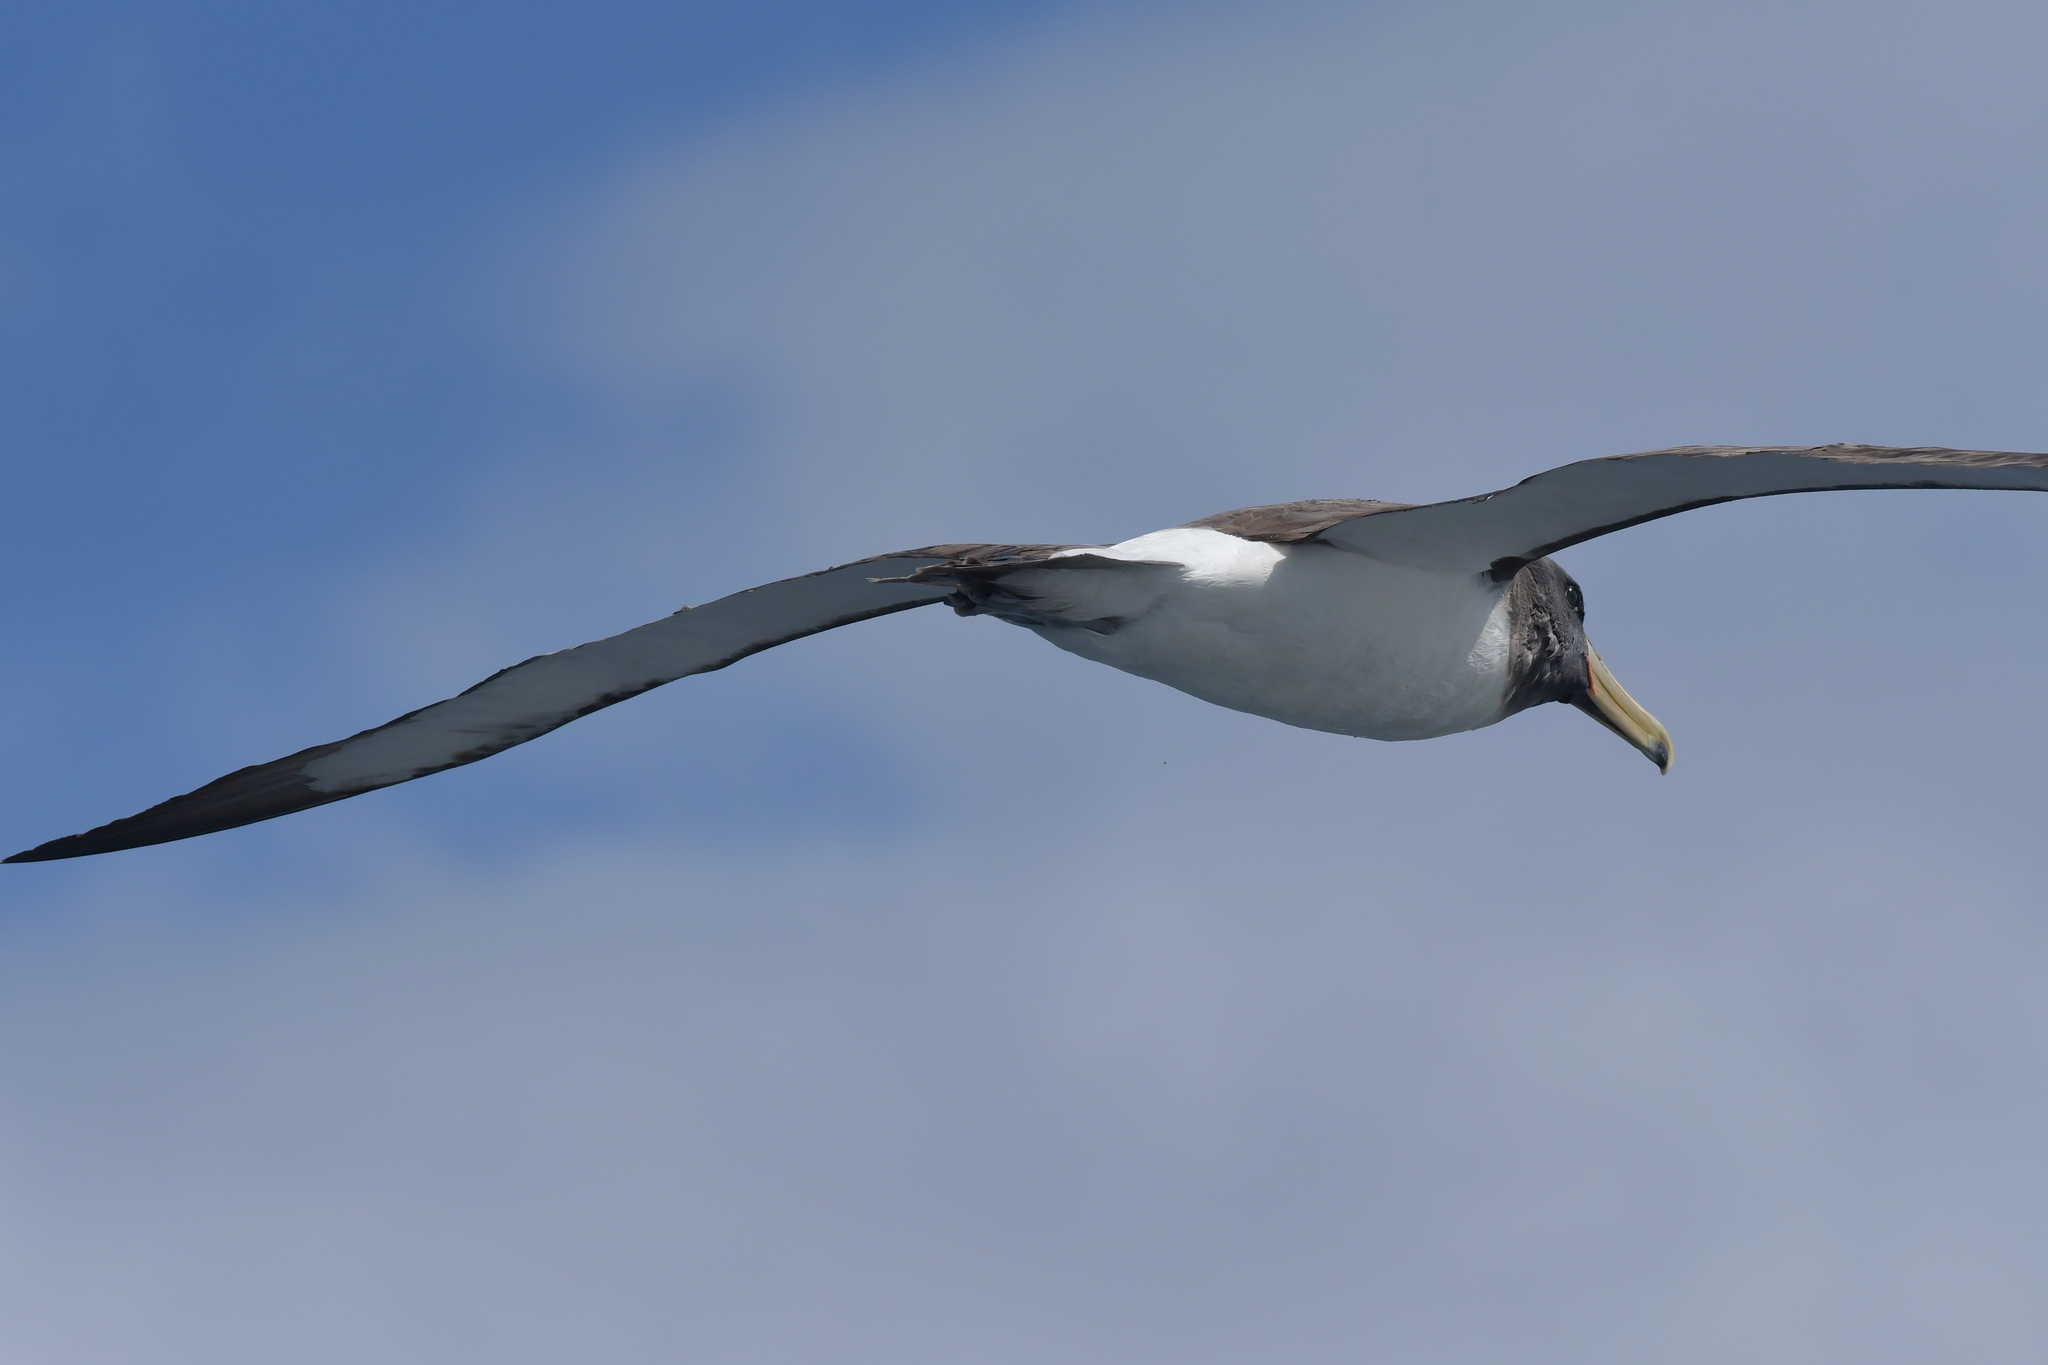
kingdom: Animalia
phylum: Chordata
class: Aves
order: Procellariiformes
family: Diomedeidae
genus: Thalassarche
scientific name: Thalassarche eremita
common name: Chatham albatross
